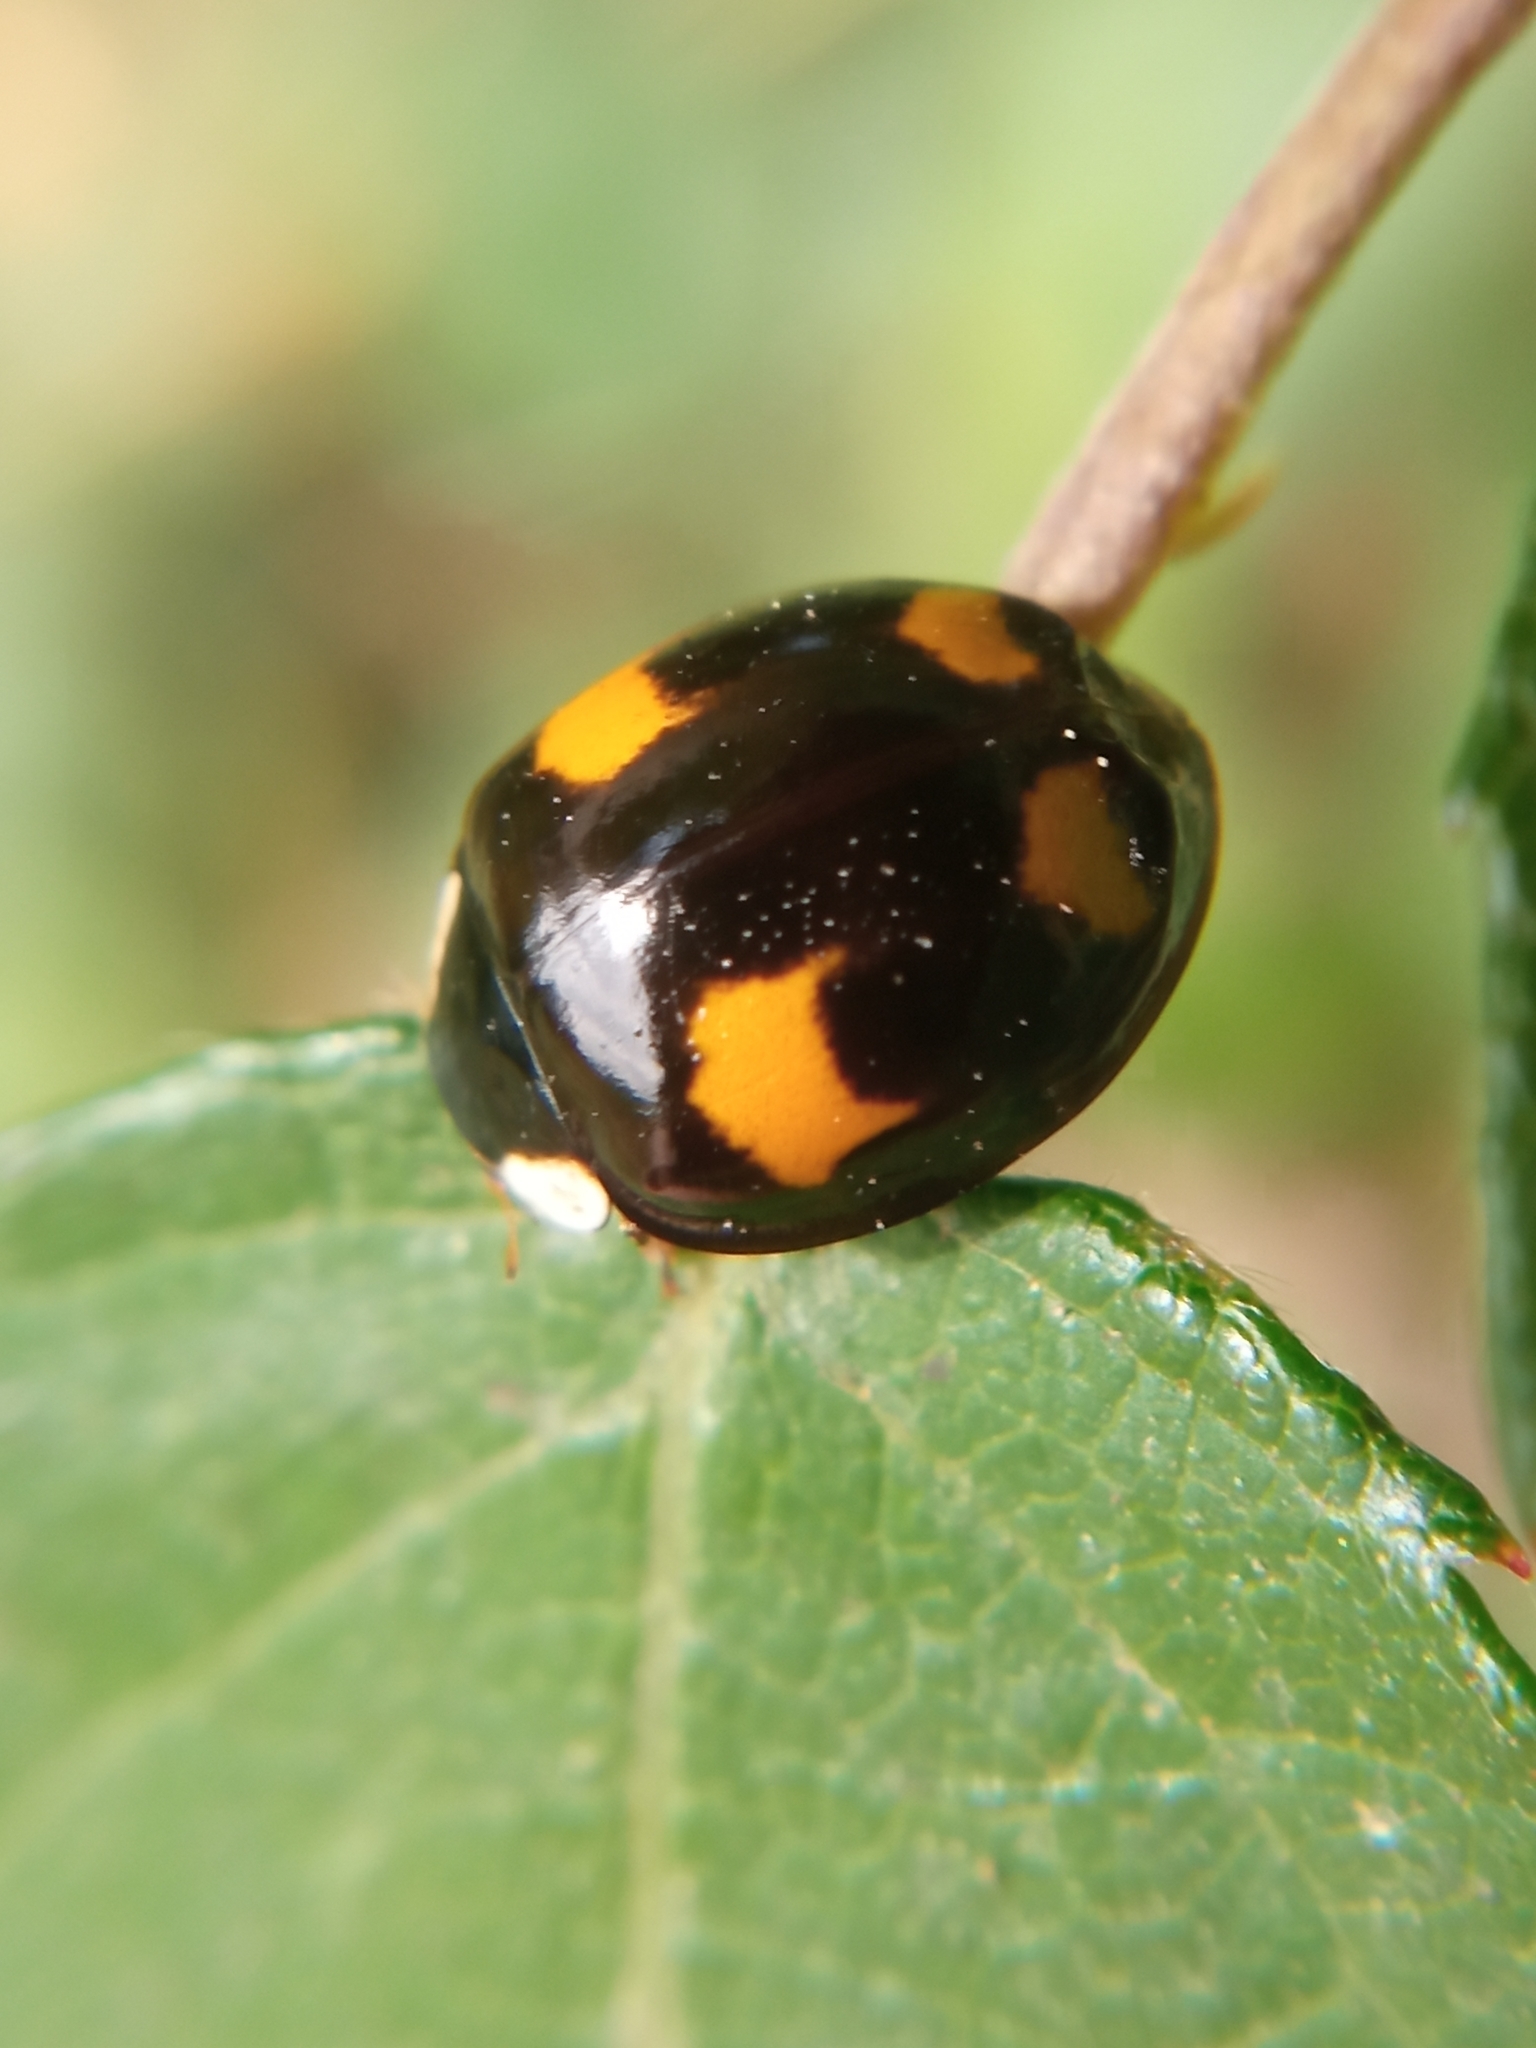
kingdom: Animalia
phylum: Arthropoda
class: Insecta
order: Coleoptera
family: Coccinellidae
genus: Harmonia
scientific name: Harmonia axyridis
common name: Harlequin ladybird
